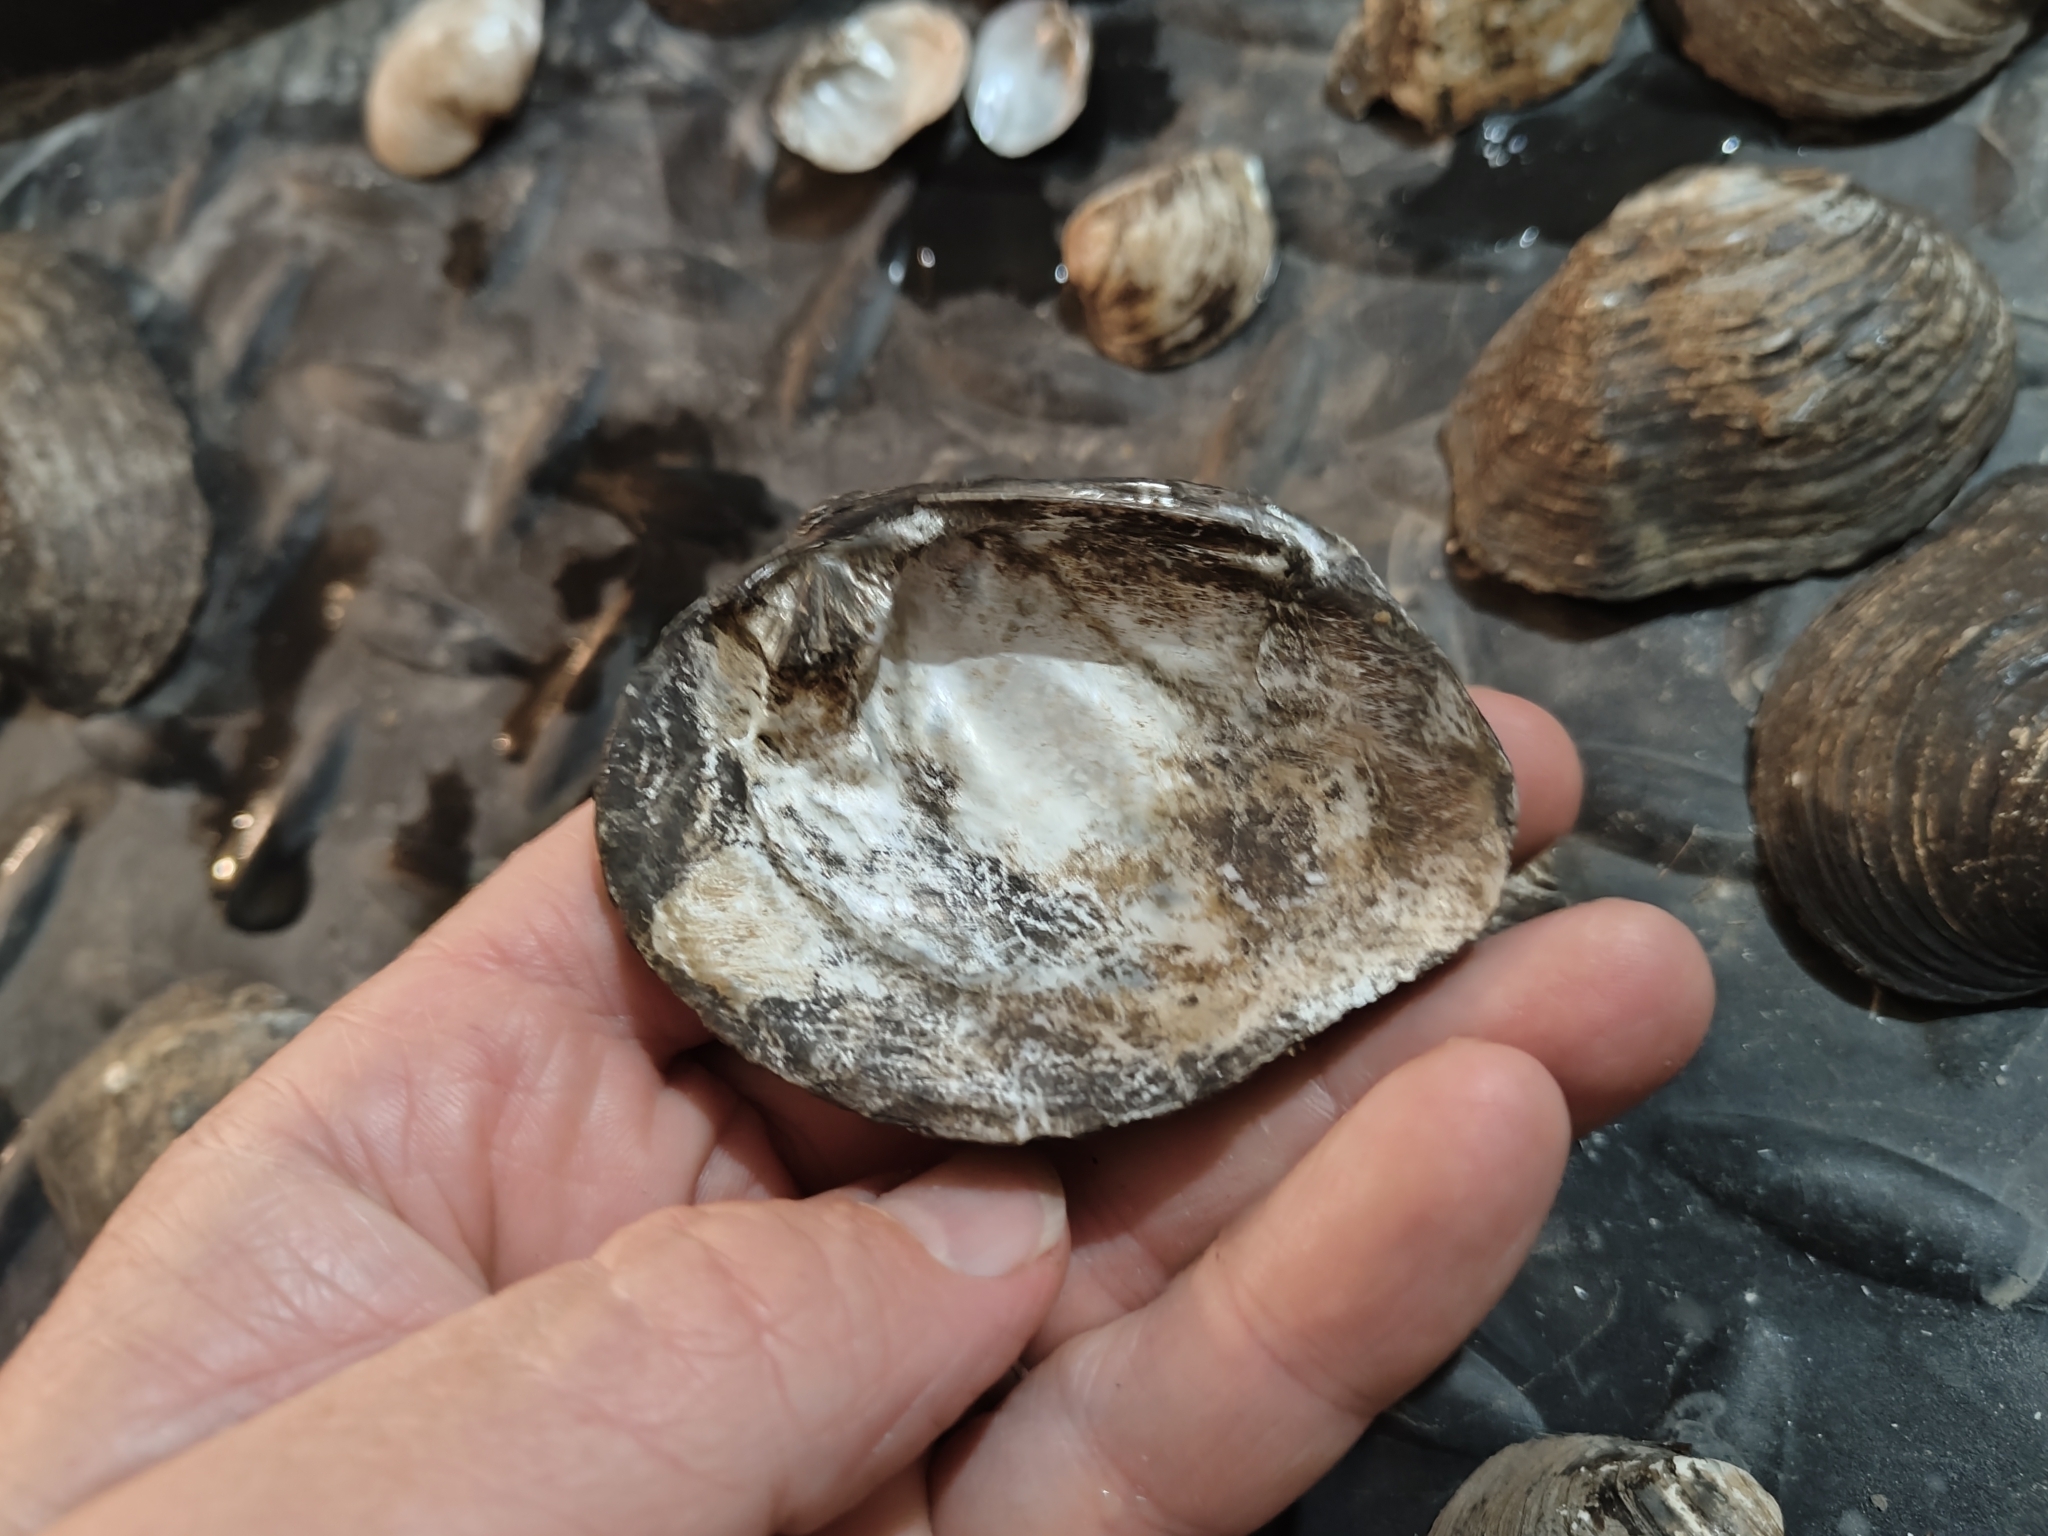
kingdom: Animalia
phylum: Mollusca
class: Bivalvia
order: Unionida
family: Unionidae
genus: Quadrula
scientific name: Quadrula quadrula
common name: Mapleleaf
